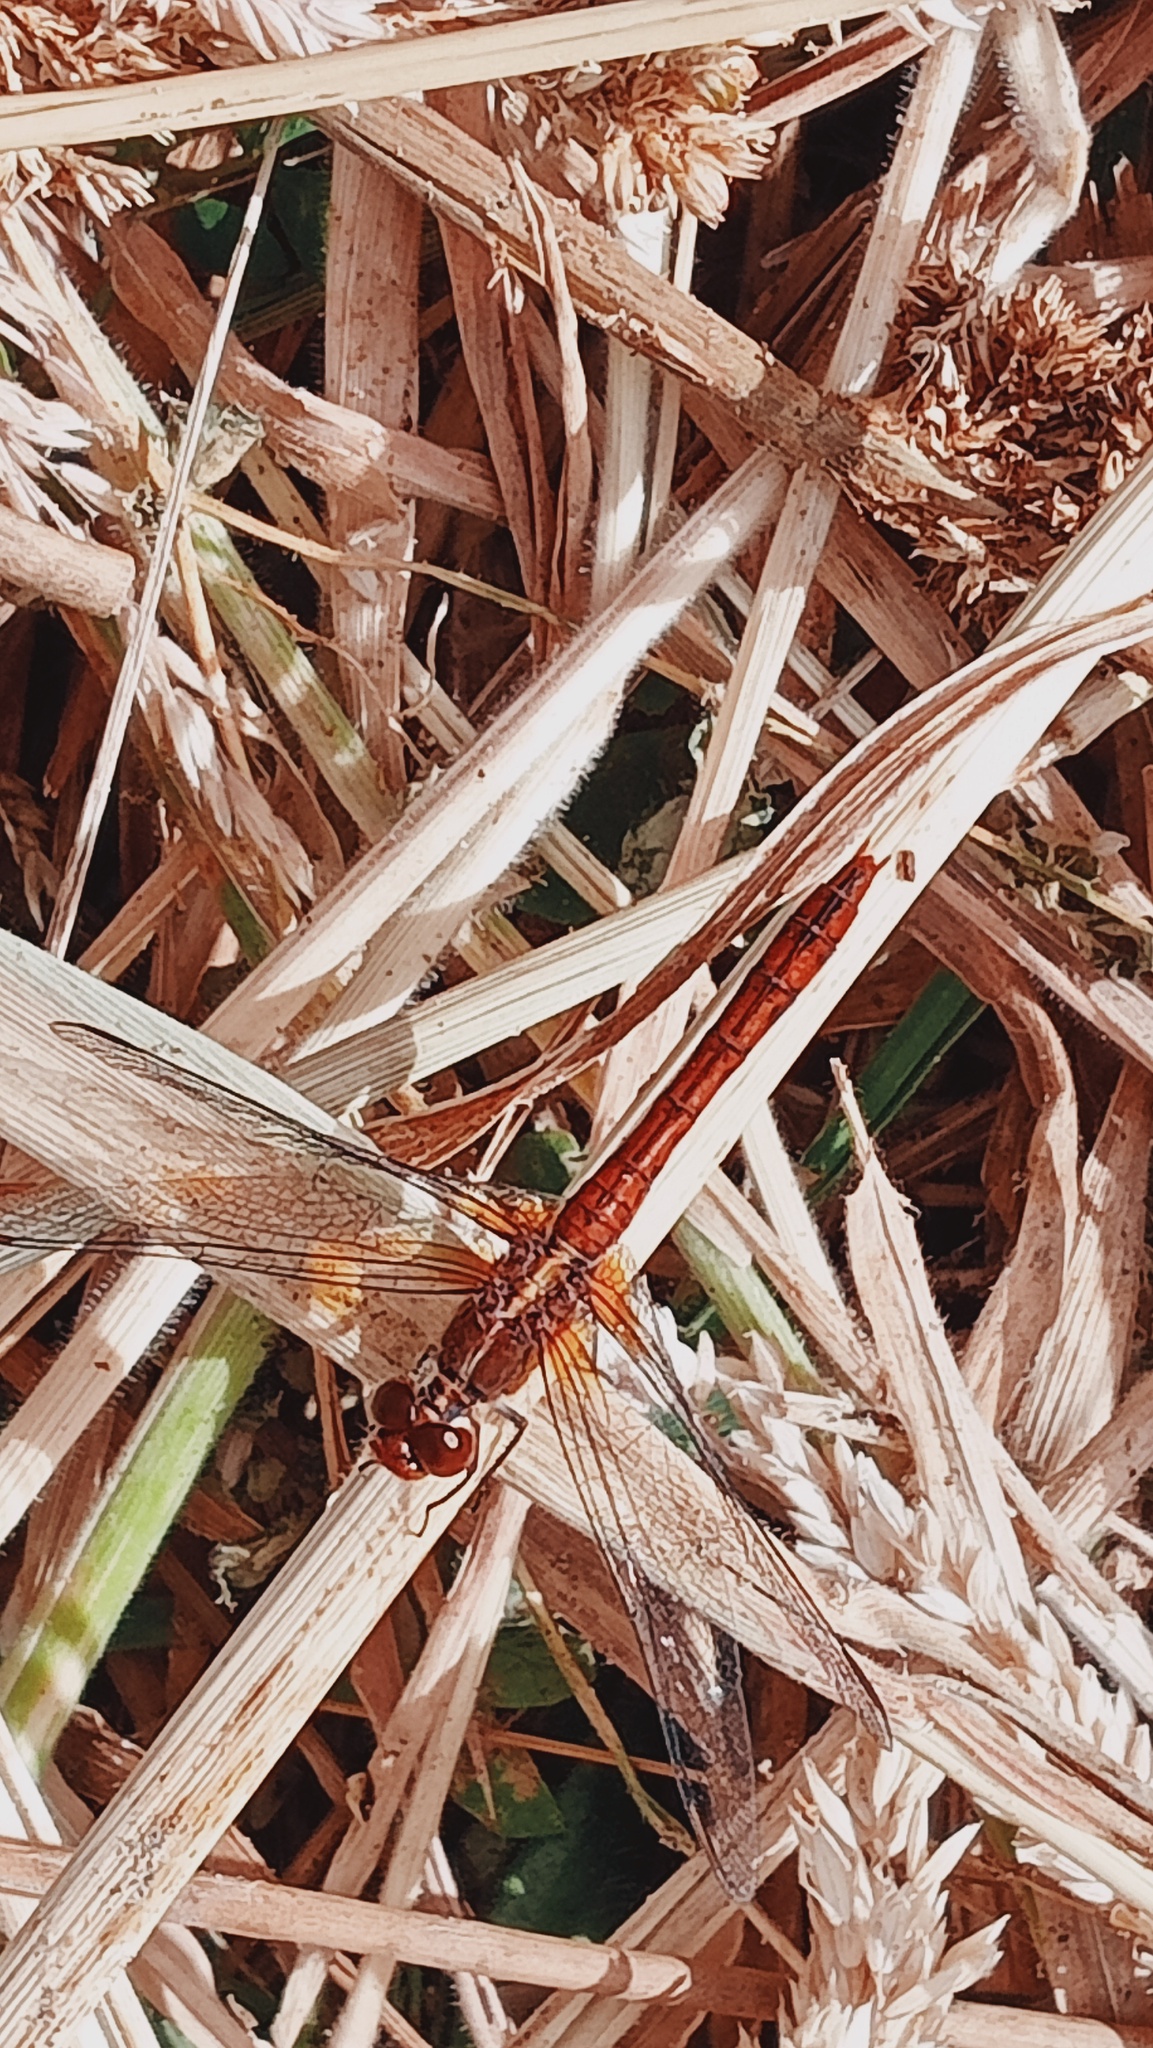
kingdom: Animalia
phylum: Arthropoda
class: Insecta
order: Odonata
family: Libellulidae
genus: Diplacodes
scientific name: Diplacodes bipunctata
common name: Red percher dragonfly
